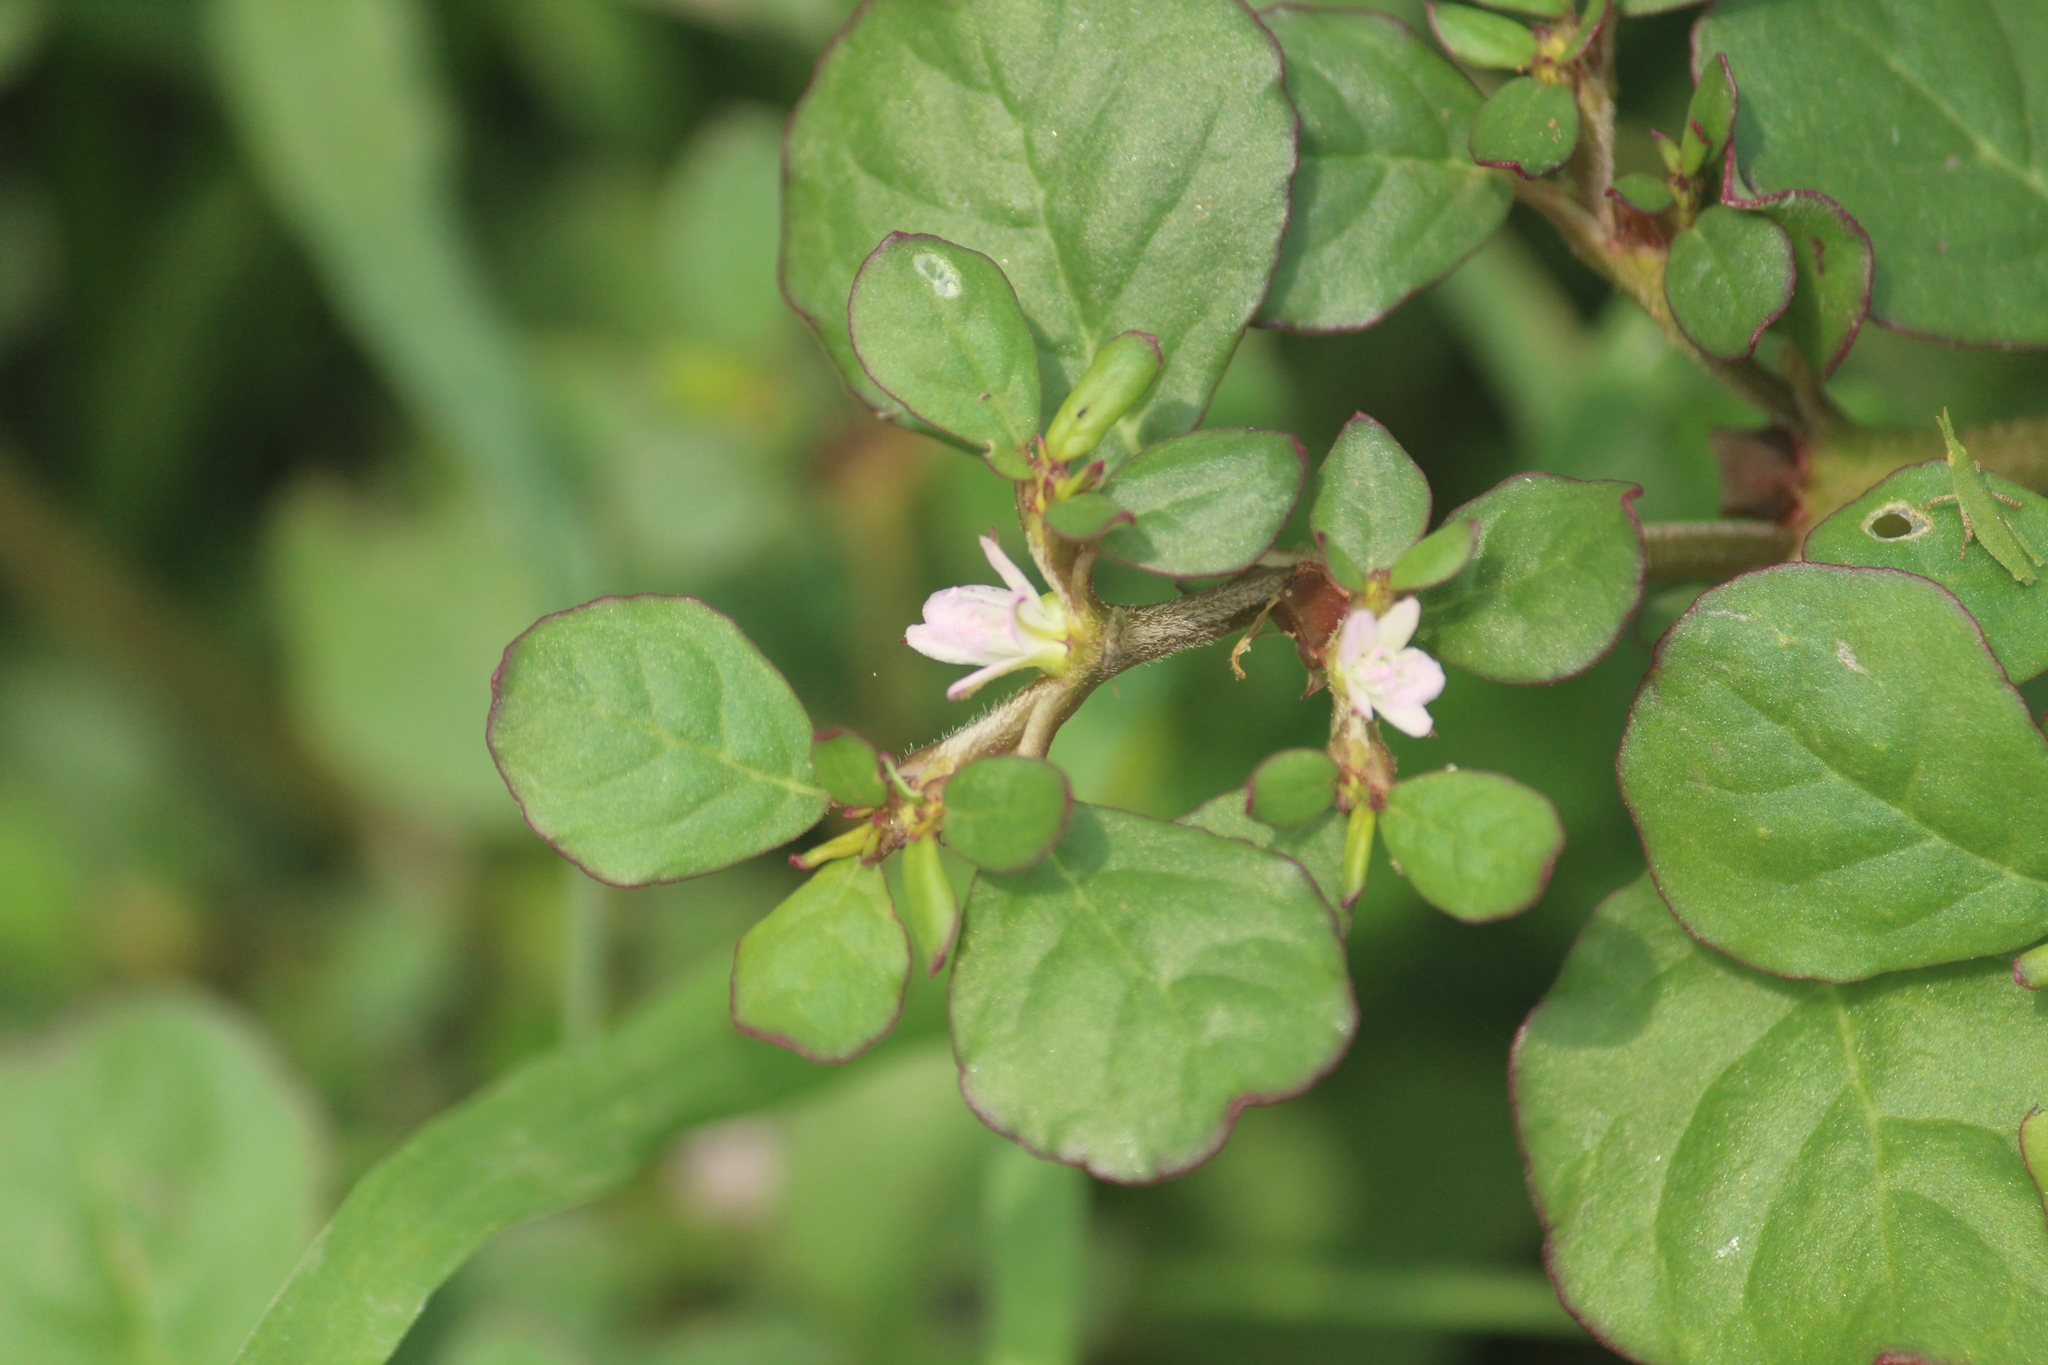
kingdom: Plantae
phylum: Tracheophyta
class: Magnoliopsida
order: Caryophyllales
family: Aizoaceae
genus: Trianthema
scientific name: Trianthema portulacastrum
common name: Desert horsepurslane
